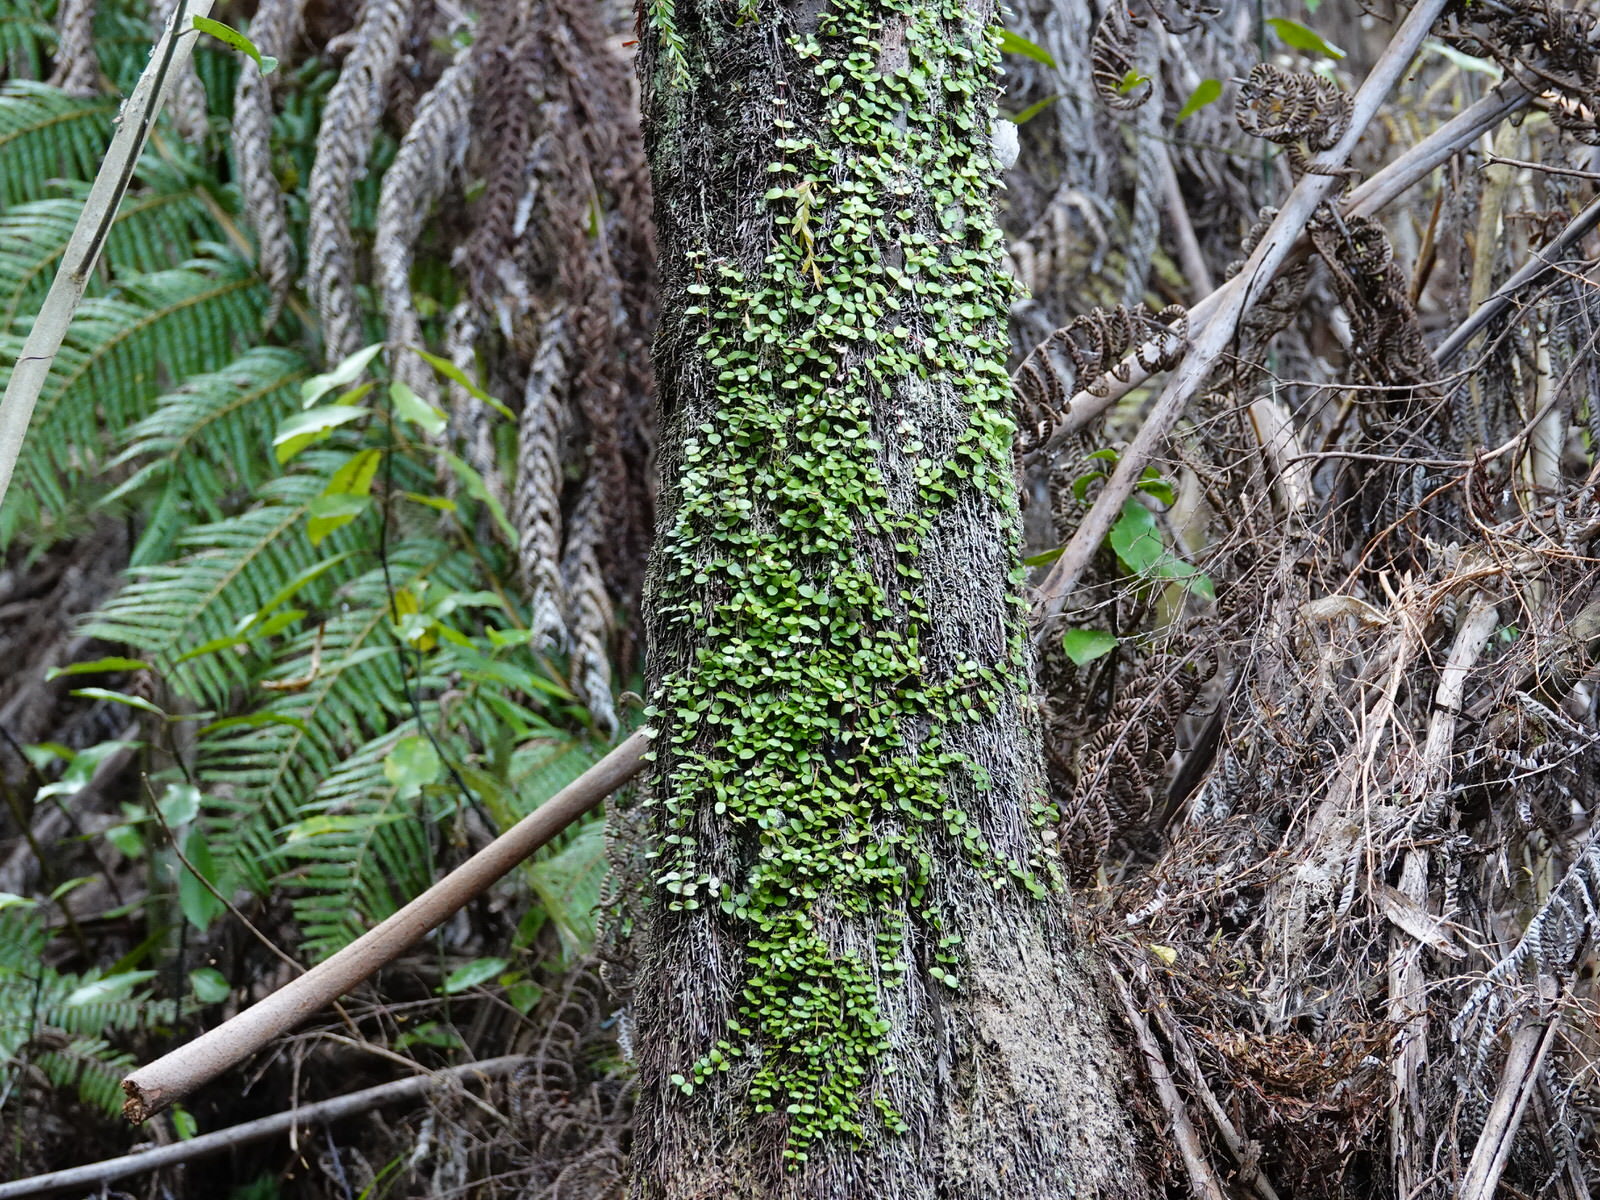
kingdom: Plantae
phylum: Tracheophyta
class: Magnoliopsida
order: Myrtales
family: Myrtaceae
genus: Metrosideros
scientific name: Metrosideros fulgens
